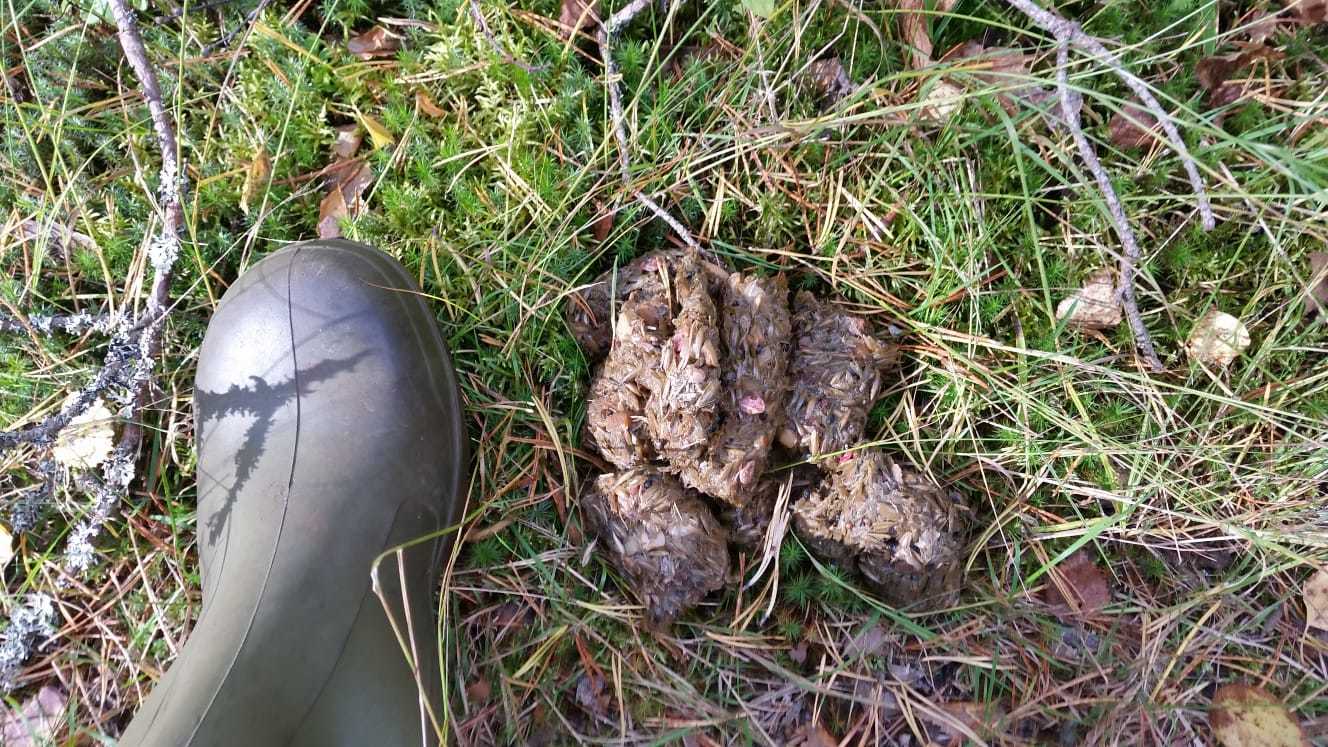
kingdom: Animalia
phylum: Chordata
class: Mammalia
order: Carnivora
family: Ursidae
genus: Ursus
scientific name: Ursus arctos
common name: Brown bear
